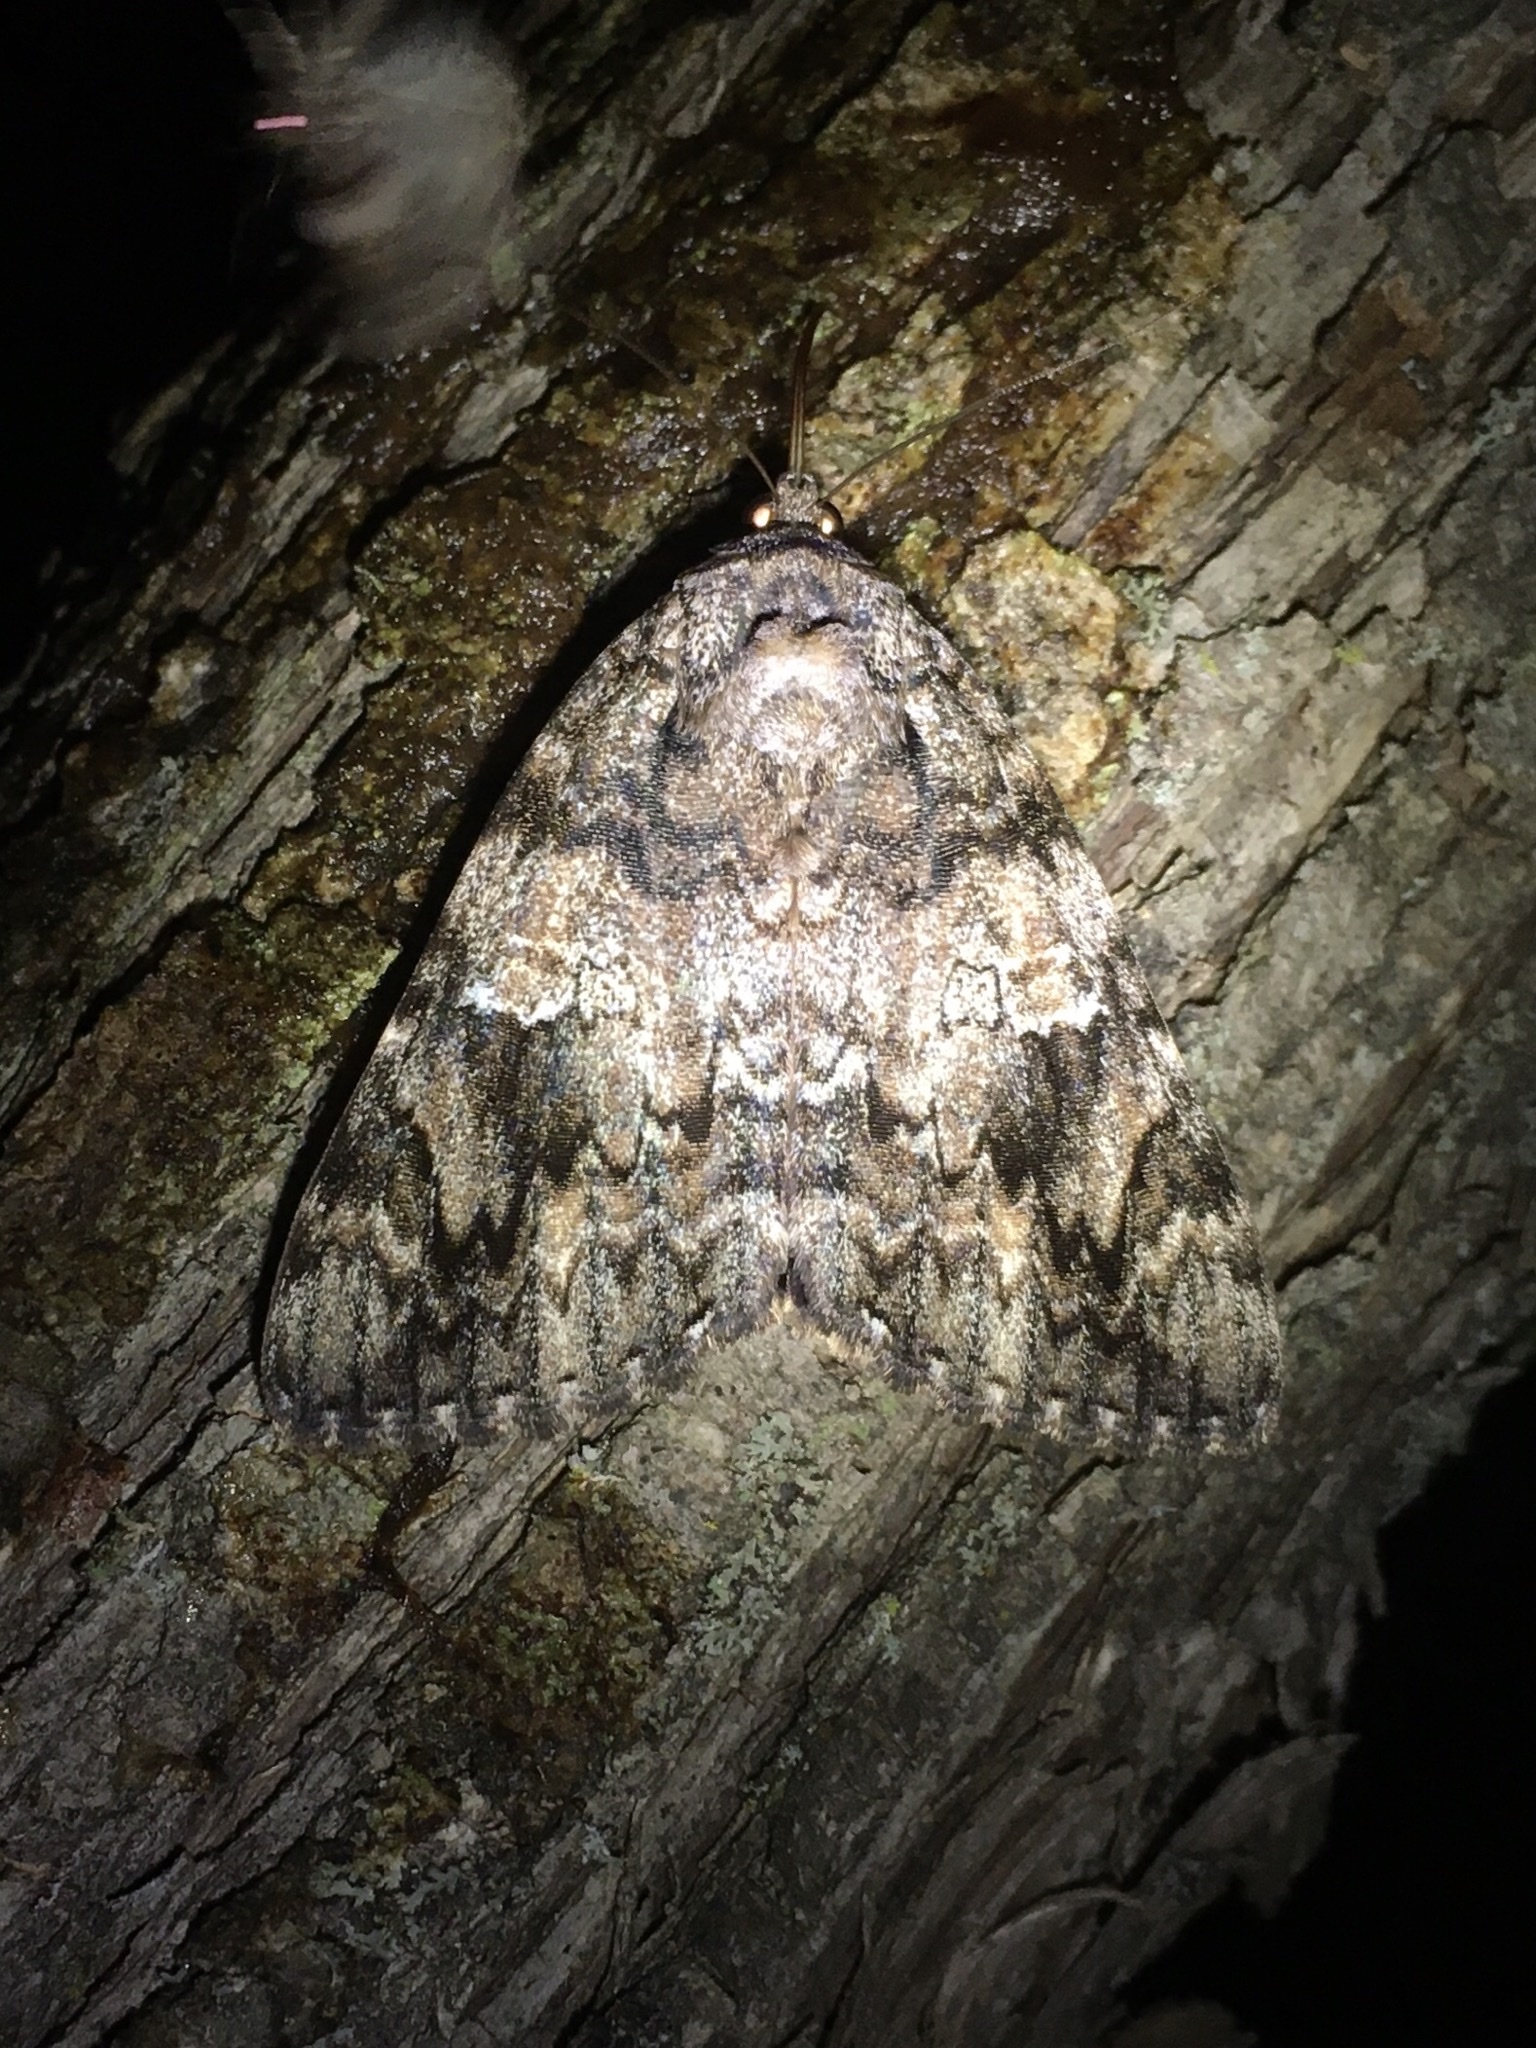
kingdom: Animalia
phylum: Arthropoda
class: Insecta
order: Lepidoptera
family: Erebidae
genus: Catocala
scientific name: Catocala ilia
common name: Ilia underwing
